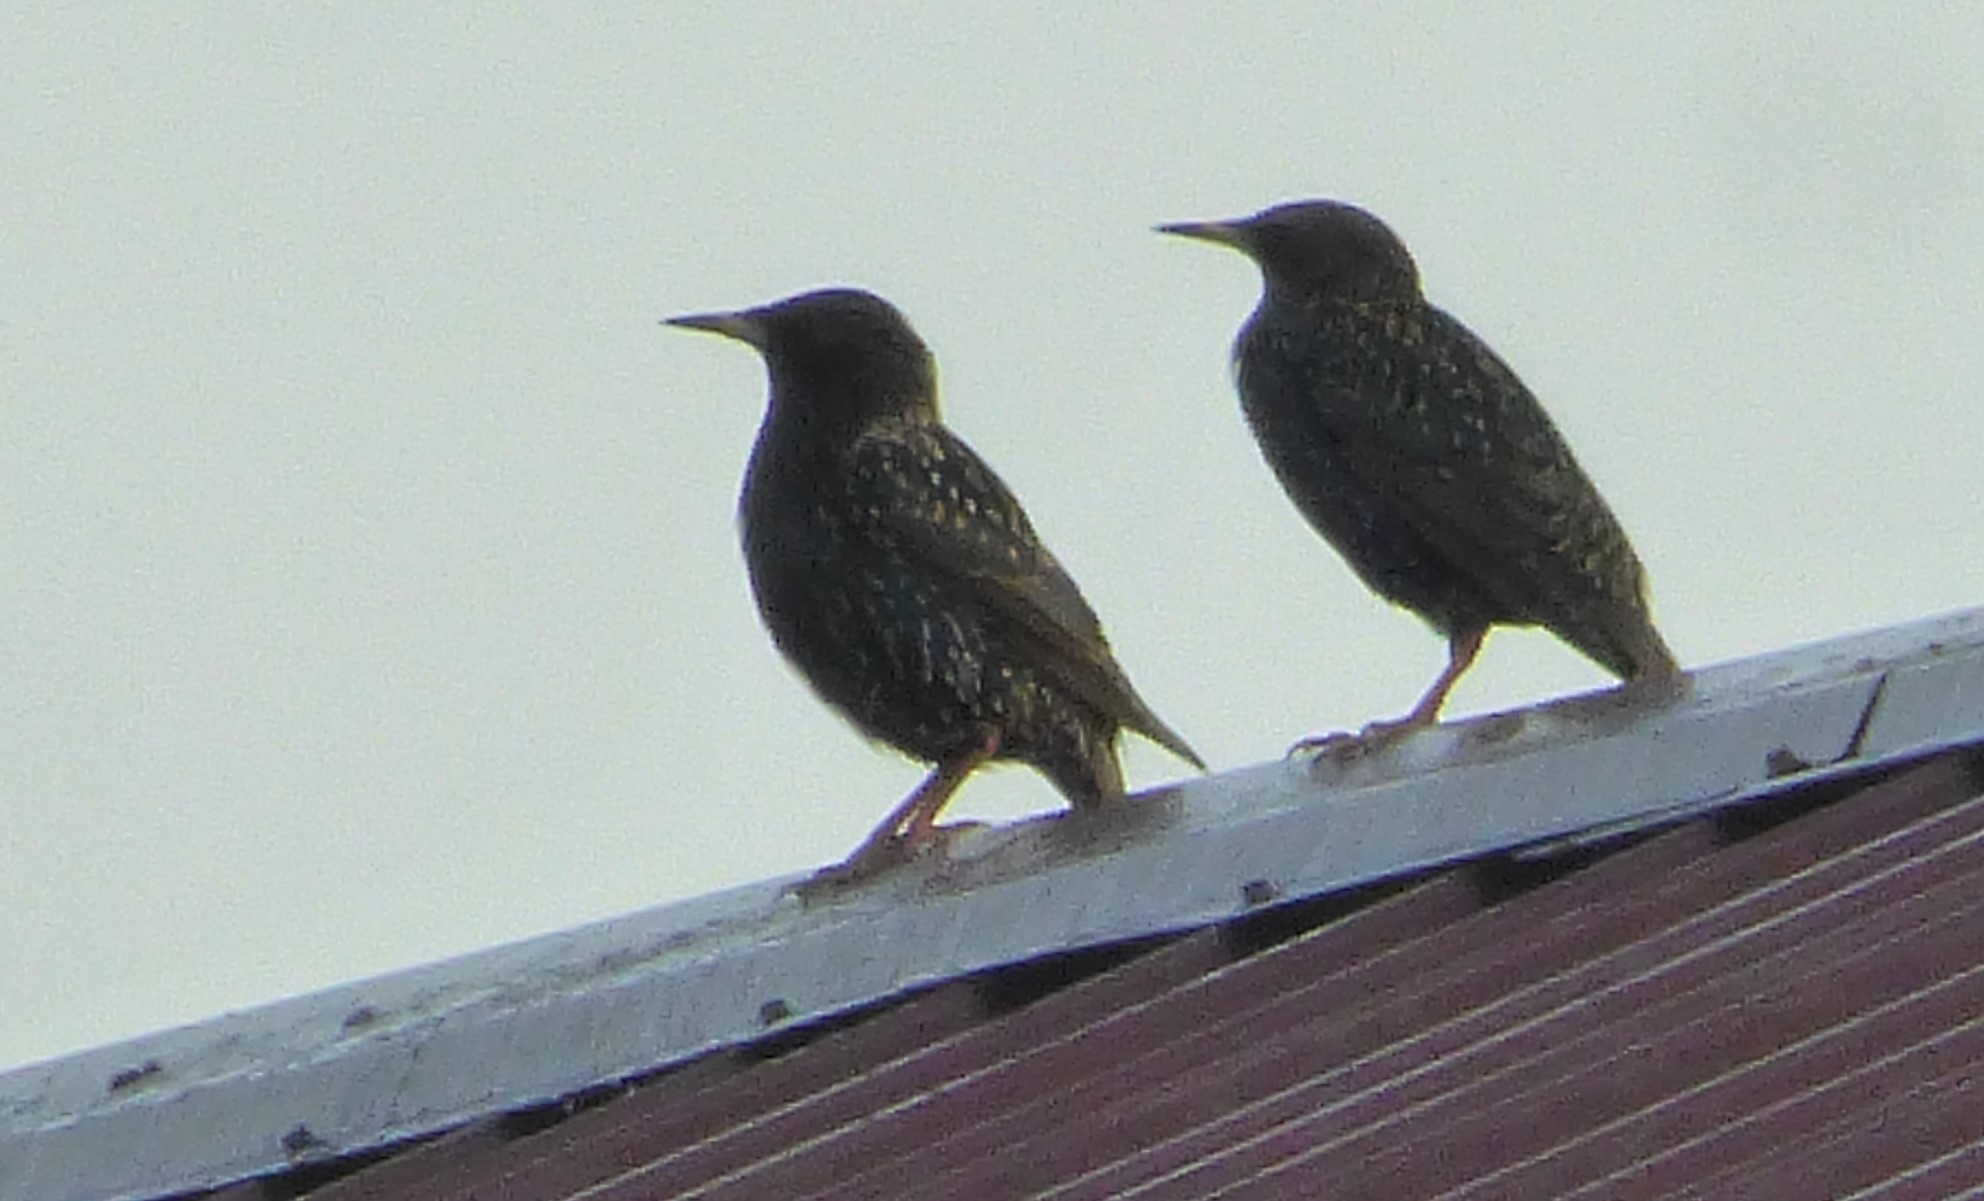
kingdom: Animalia
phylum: Chordata
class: Aves
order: Passeriformes
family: Sturnidae
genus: Sturnus
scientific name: Sturnus vulgaris
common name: Common starling
